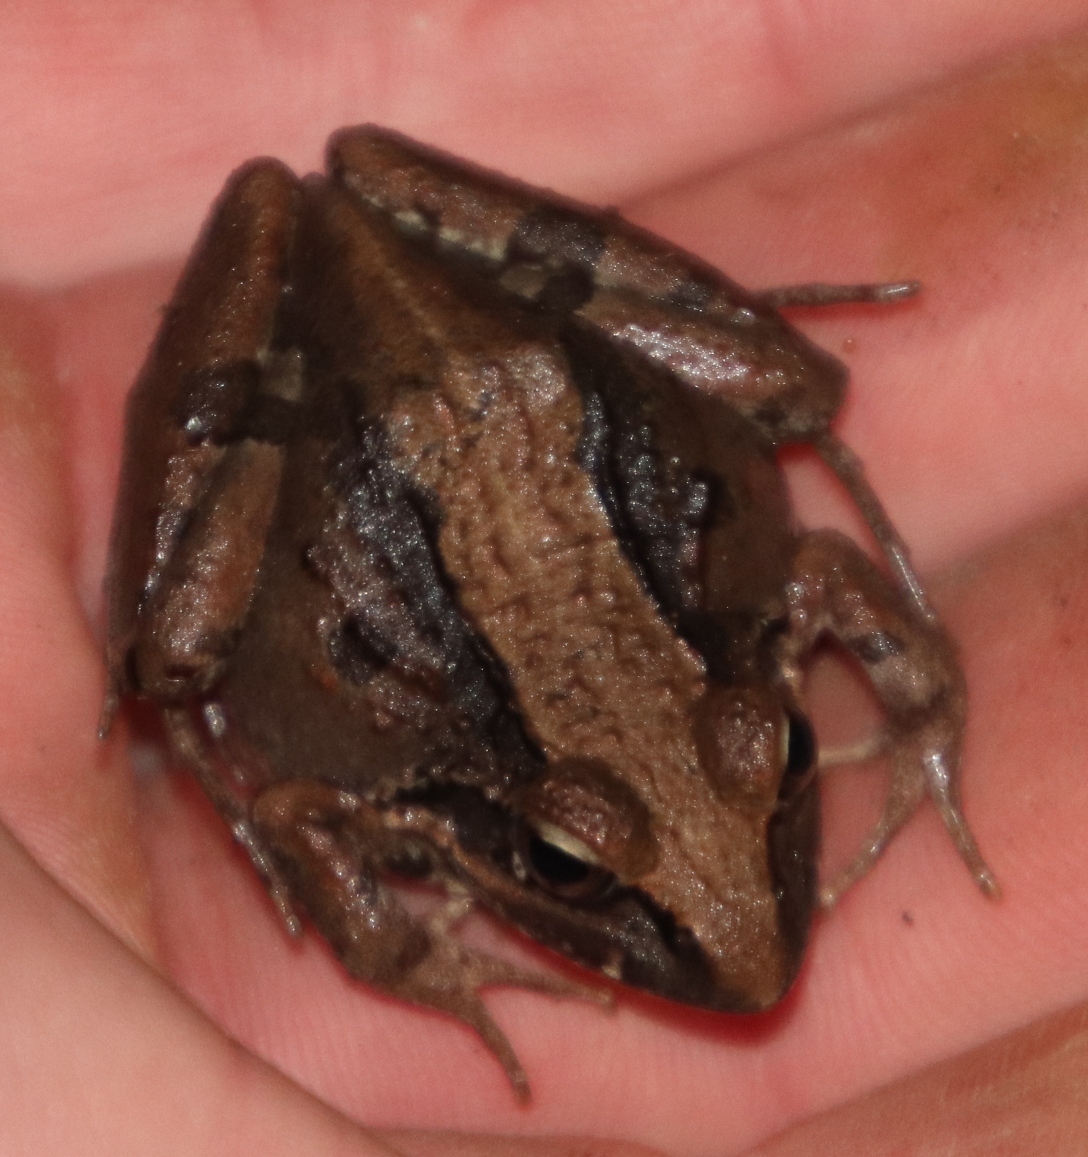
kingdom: Animalia
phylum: Chordata
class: Amphibia
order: Anura
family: Pyxicephalidae
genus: Strongylopus
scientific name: Strongylopus grayii
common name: Gray's stream frog
